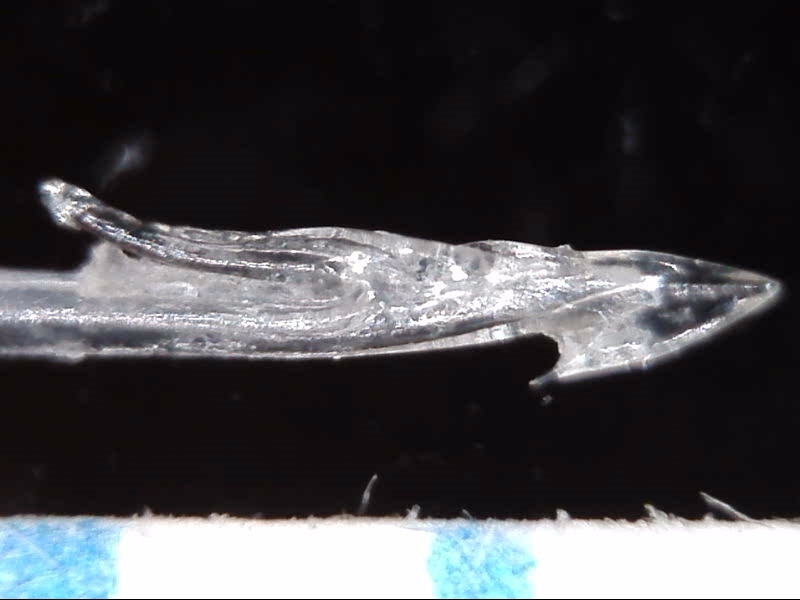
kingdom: Animalia
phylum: Mollusca
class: Gastropoda
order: Neogastropoda
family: Conidae
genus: Conus
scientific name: Conus fulmen
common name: Fulmen's cone
